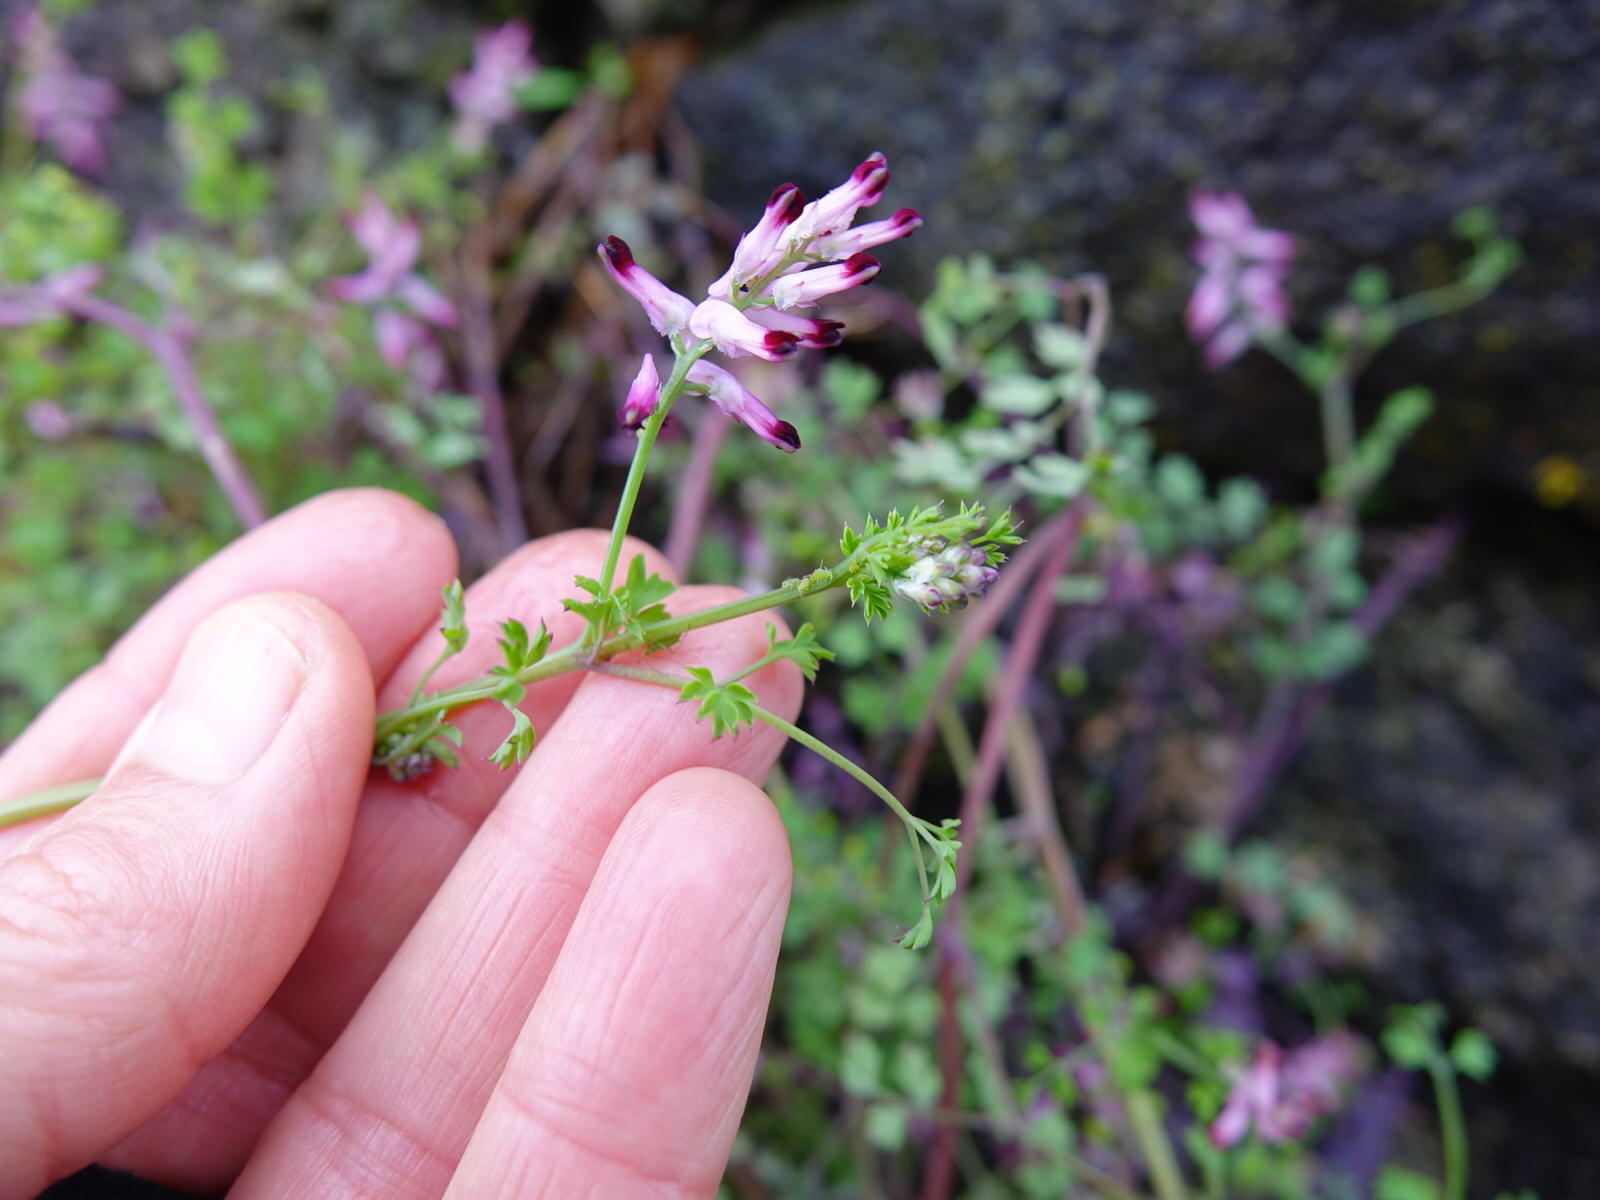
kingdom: Plantae
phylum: Tracheophyta
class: Magnoliopsida
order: Ranunculales
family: Papaveraceae
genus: Fumaria
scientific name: Fumaria muralis
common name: Common ramping-fumitory
